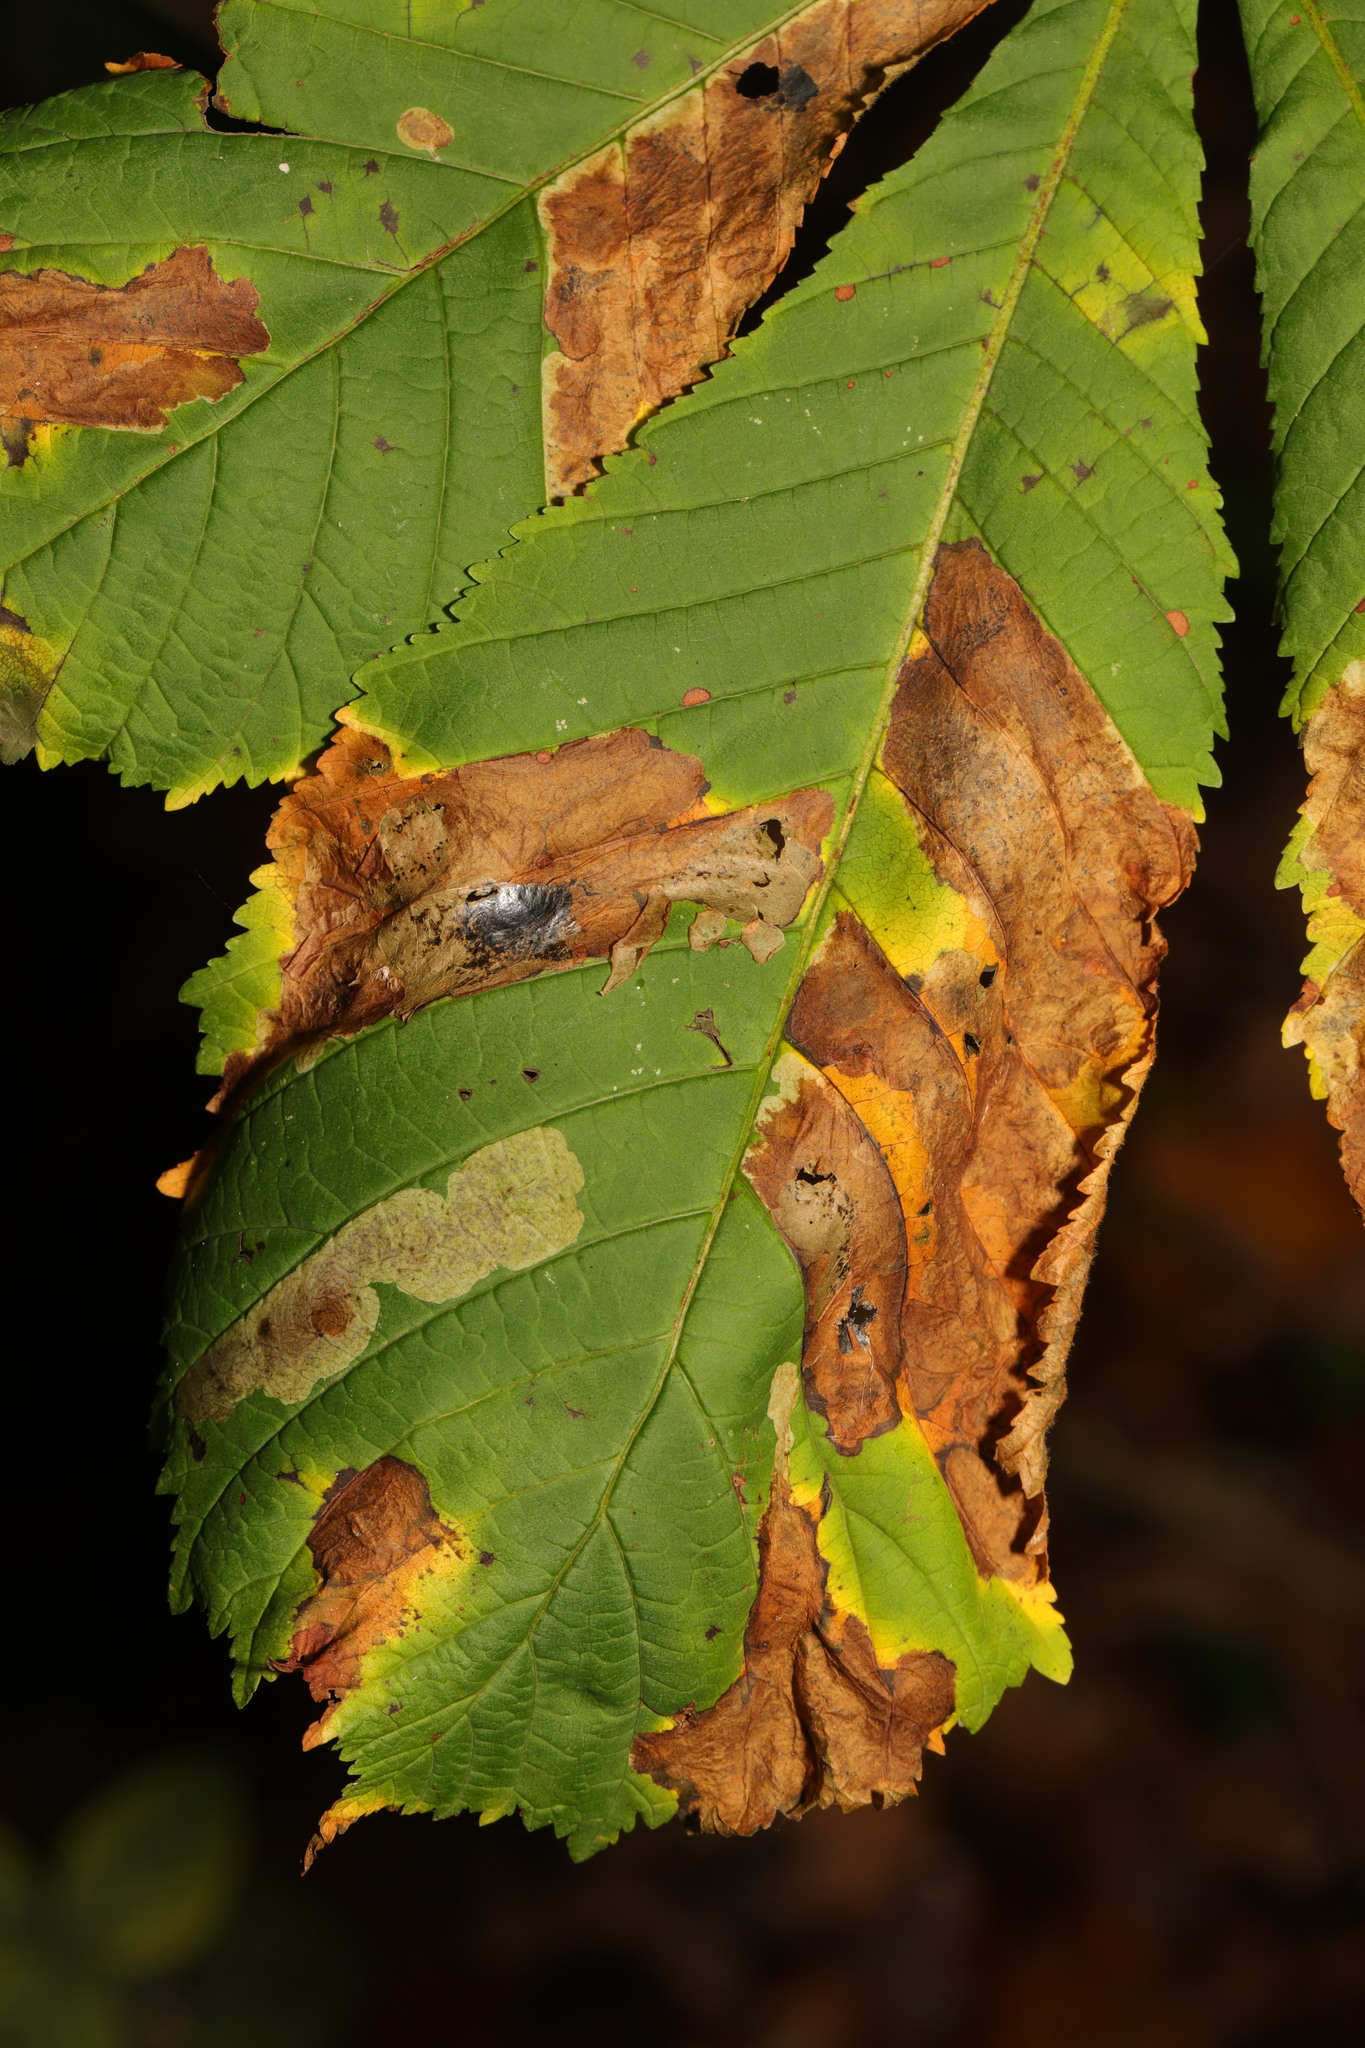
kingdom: Animalia
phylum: Arthropoda
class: Insecta
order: Lepidoptera
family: Gracillariidae
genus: Cameraria
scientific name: Cameraria ohridella
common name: Horse-chestnut leaf-miner
